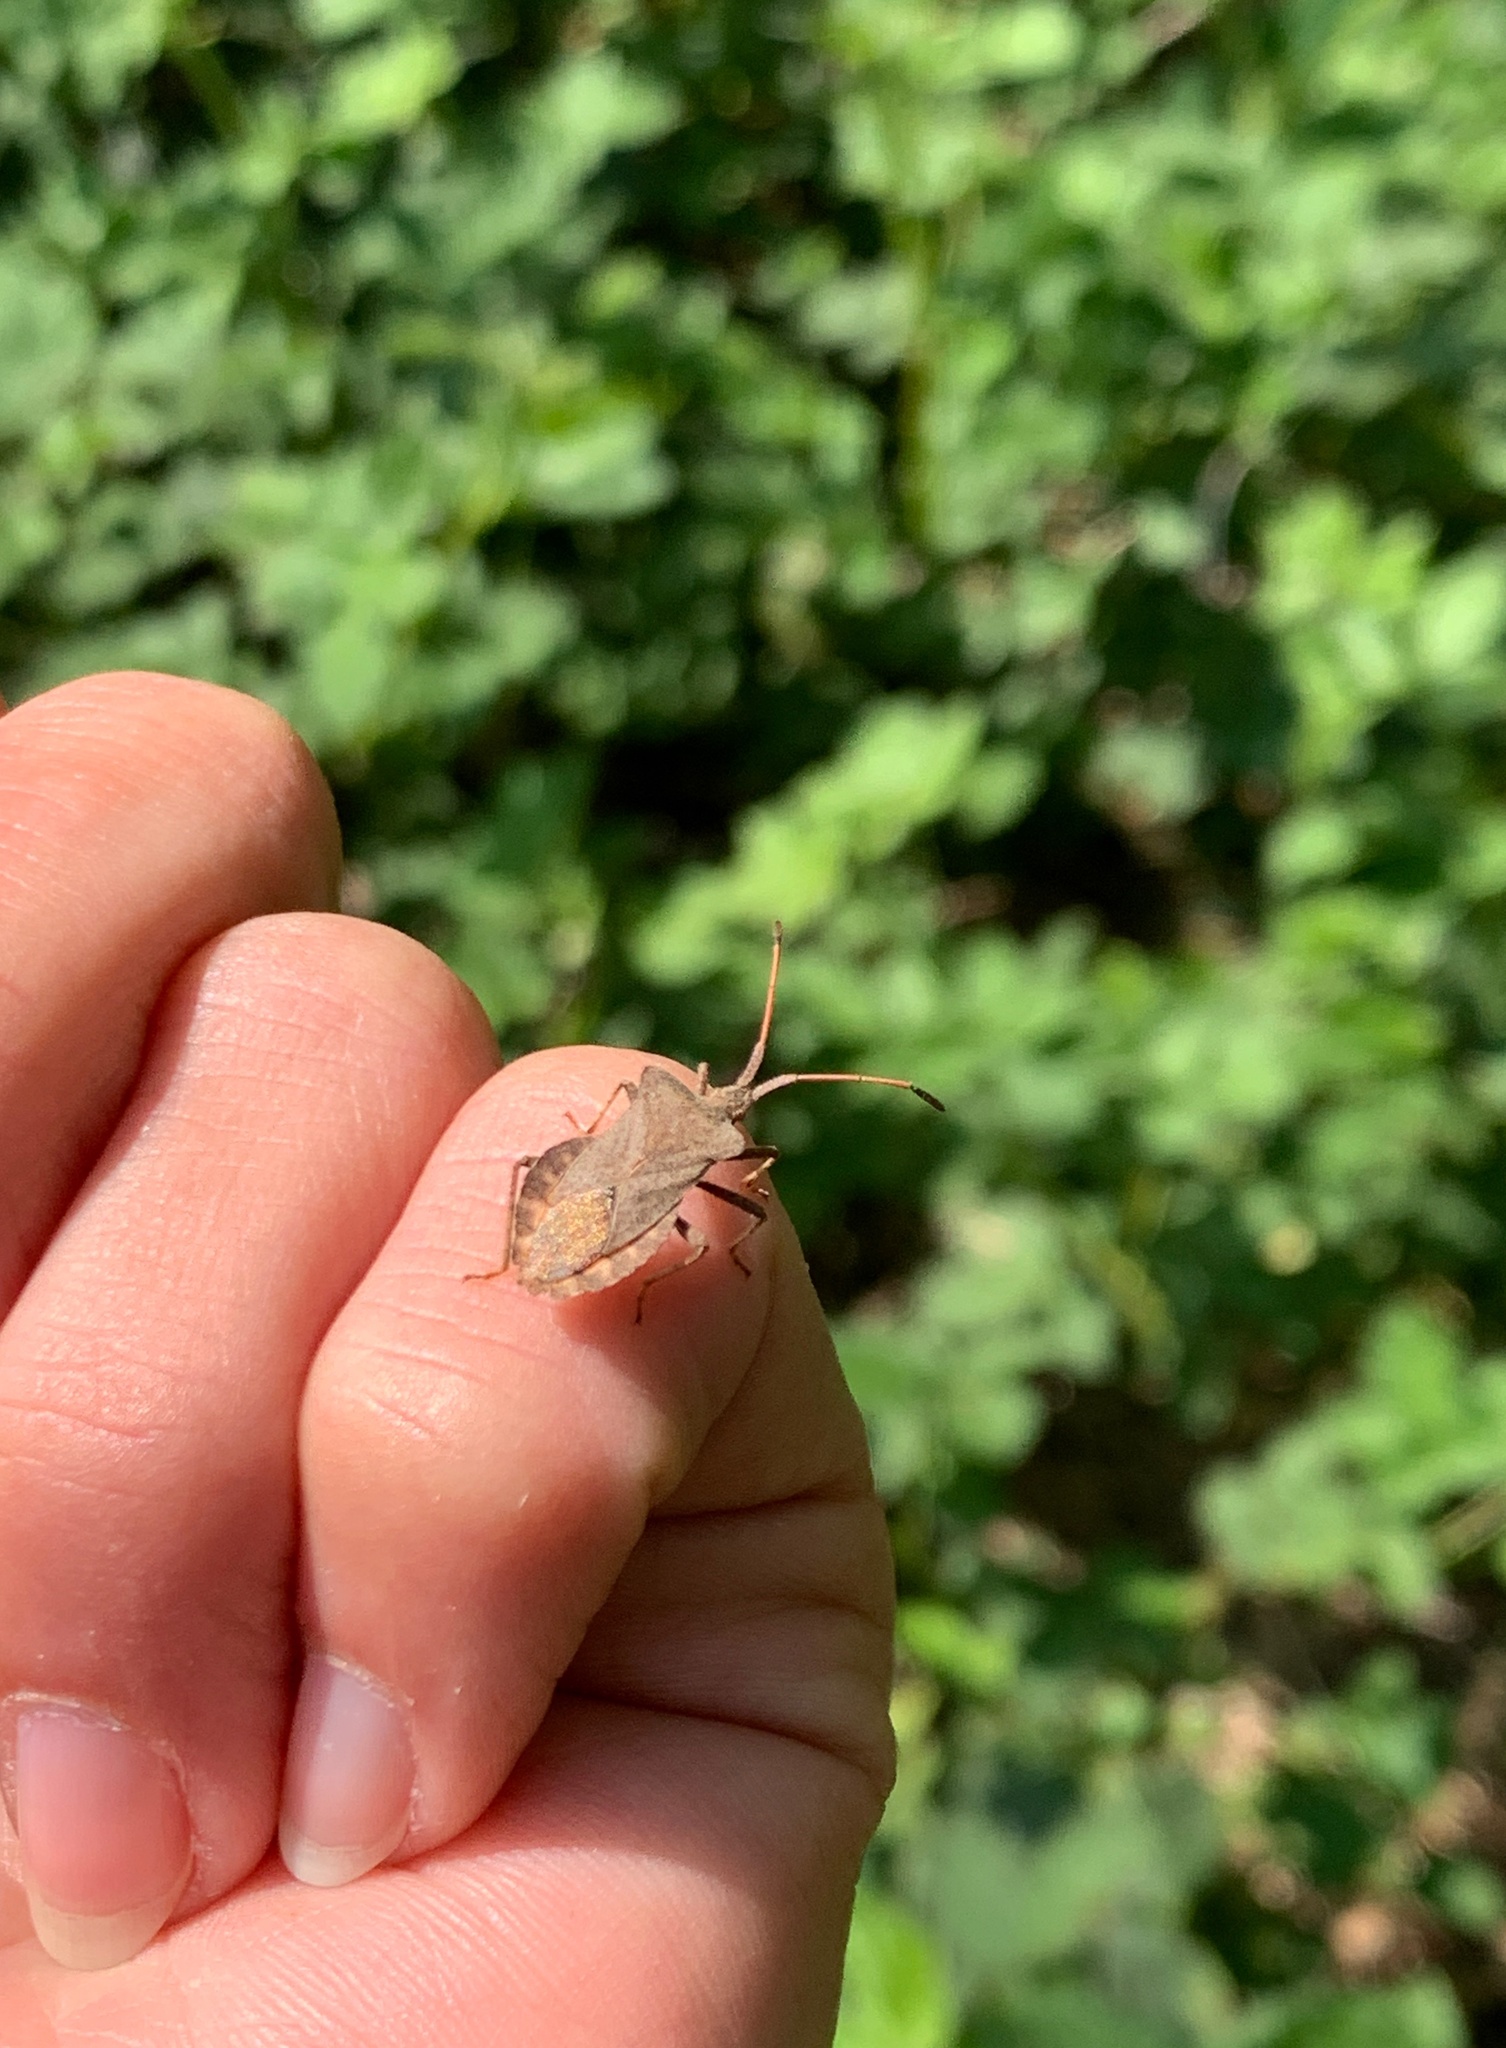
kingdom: Animalia
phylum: Arthropoda
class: Insecta
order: Hemiptera
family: Coreidae
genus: Coreus
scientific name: Coreus marginatus
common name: Dock bug
